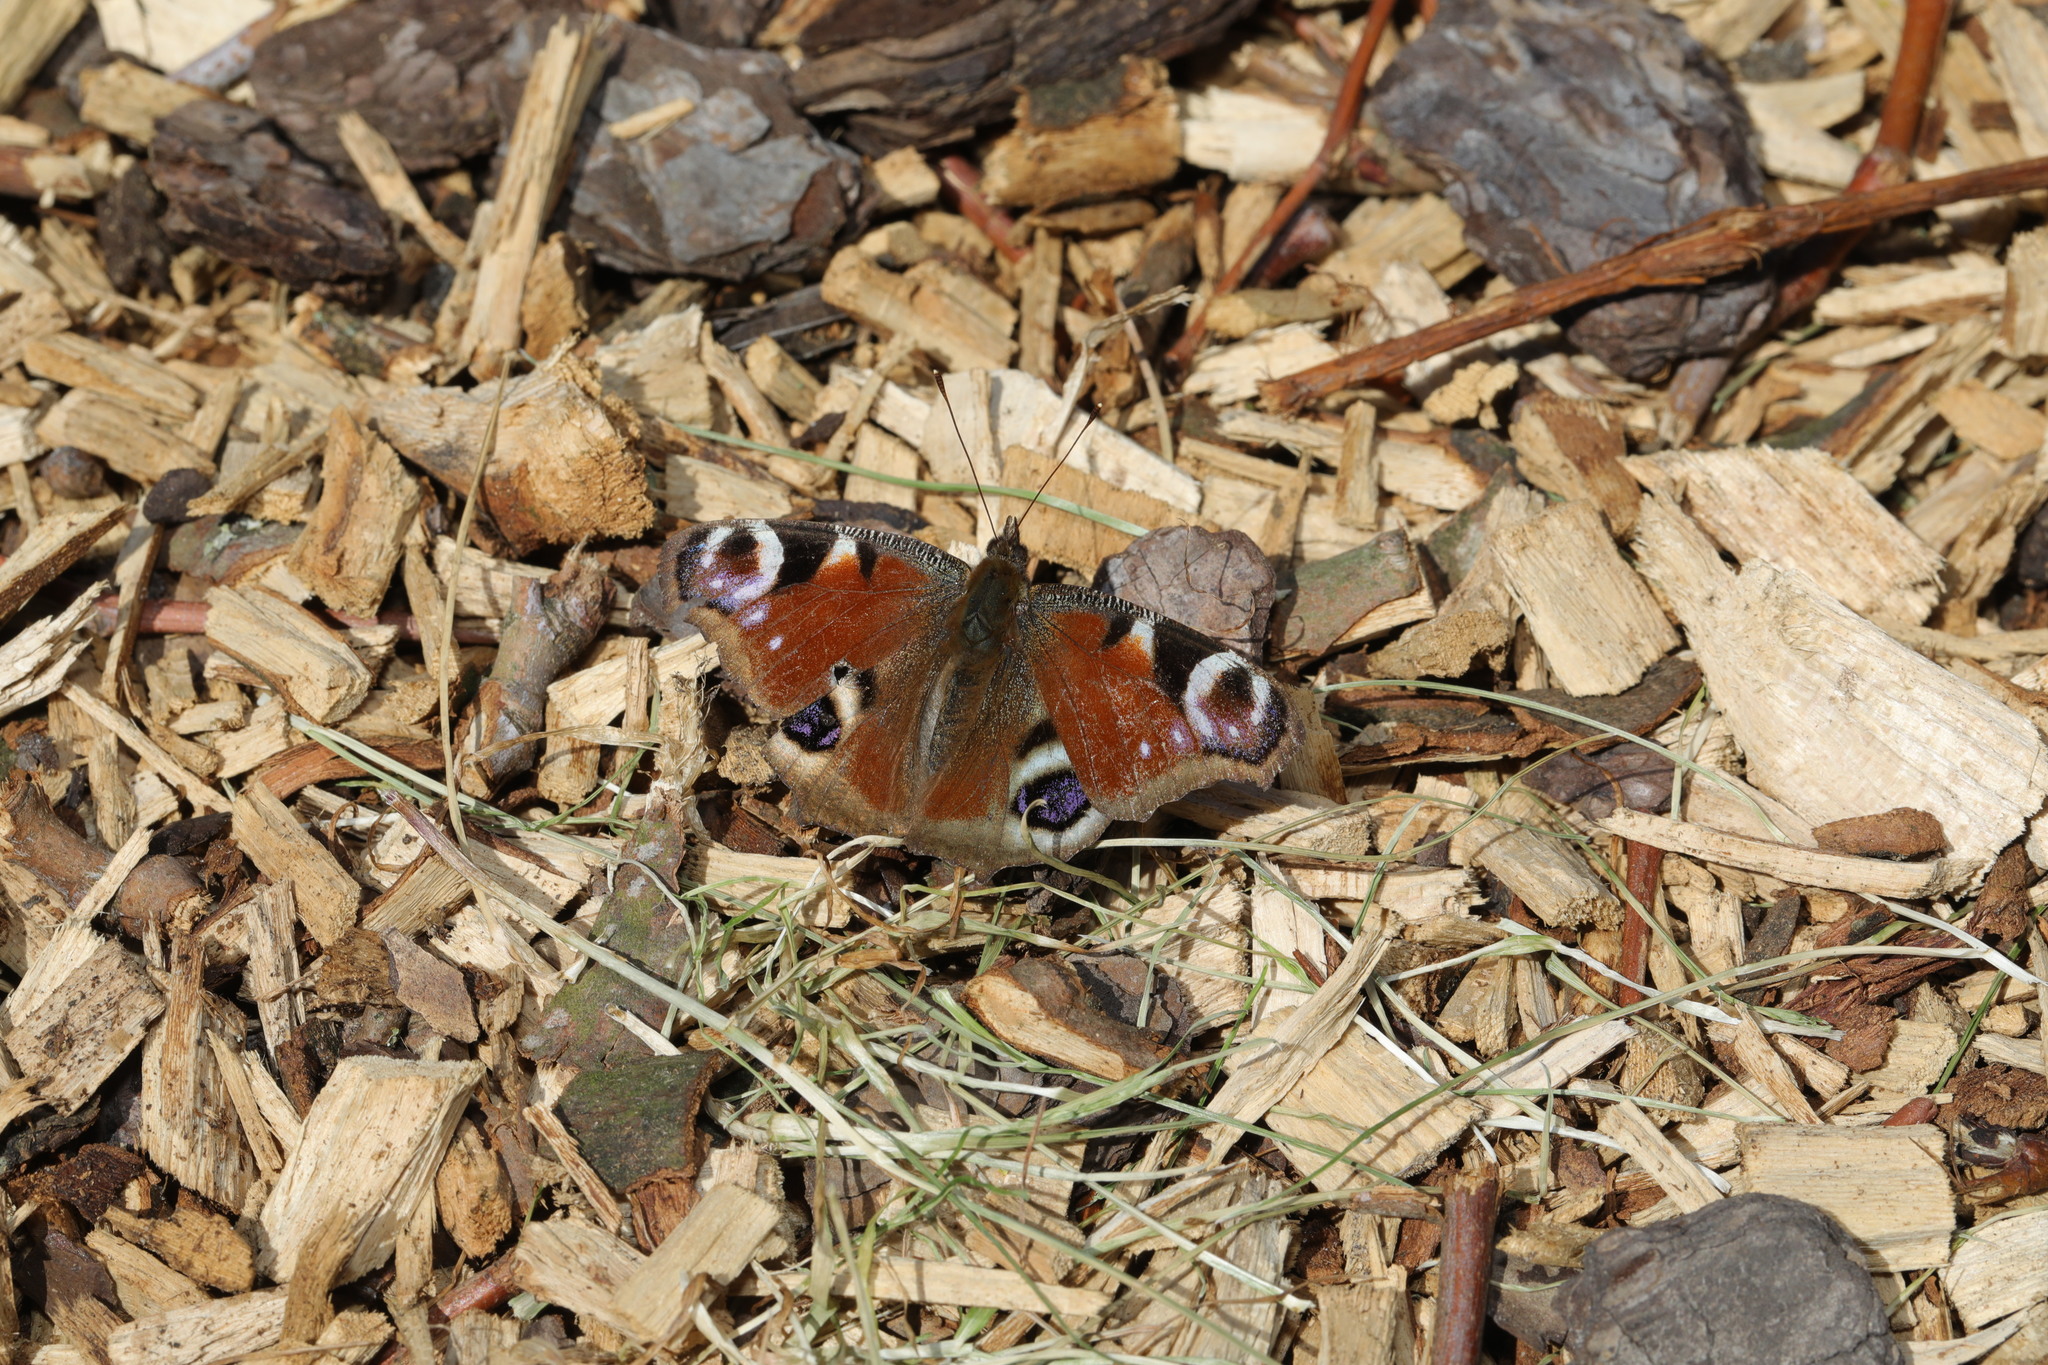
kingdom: Animalia
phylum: Arthropoda
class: Insecta
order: Lepidoptera
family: Nymphalidae
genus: Aglais
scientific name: Aglais io
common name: Peacock
